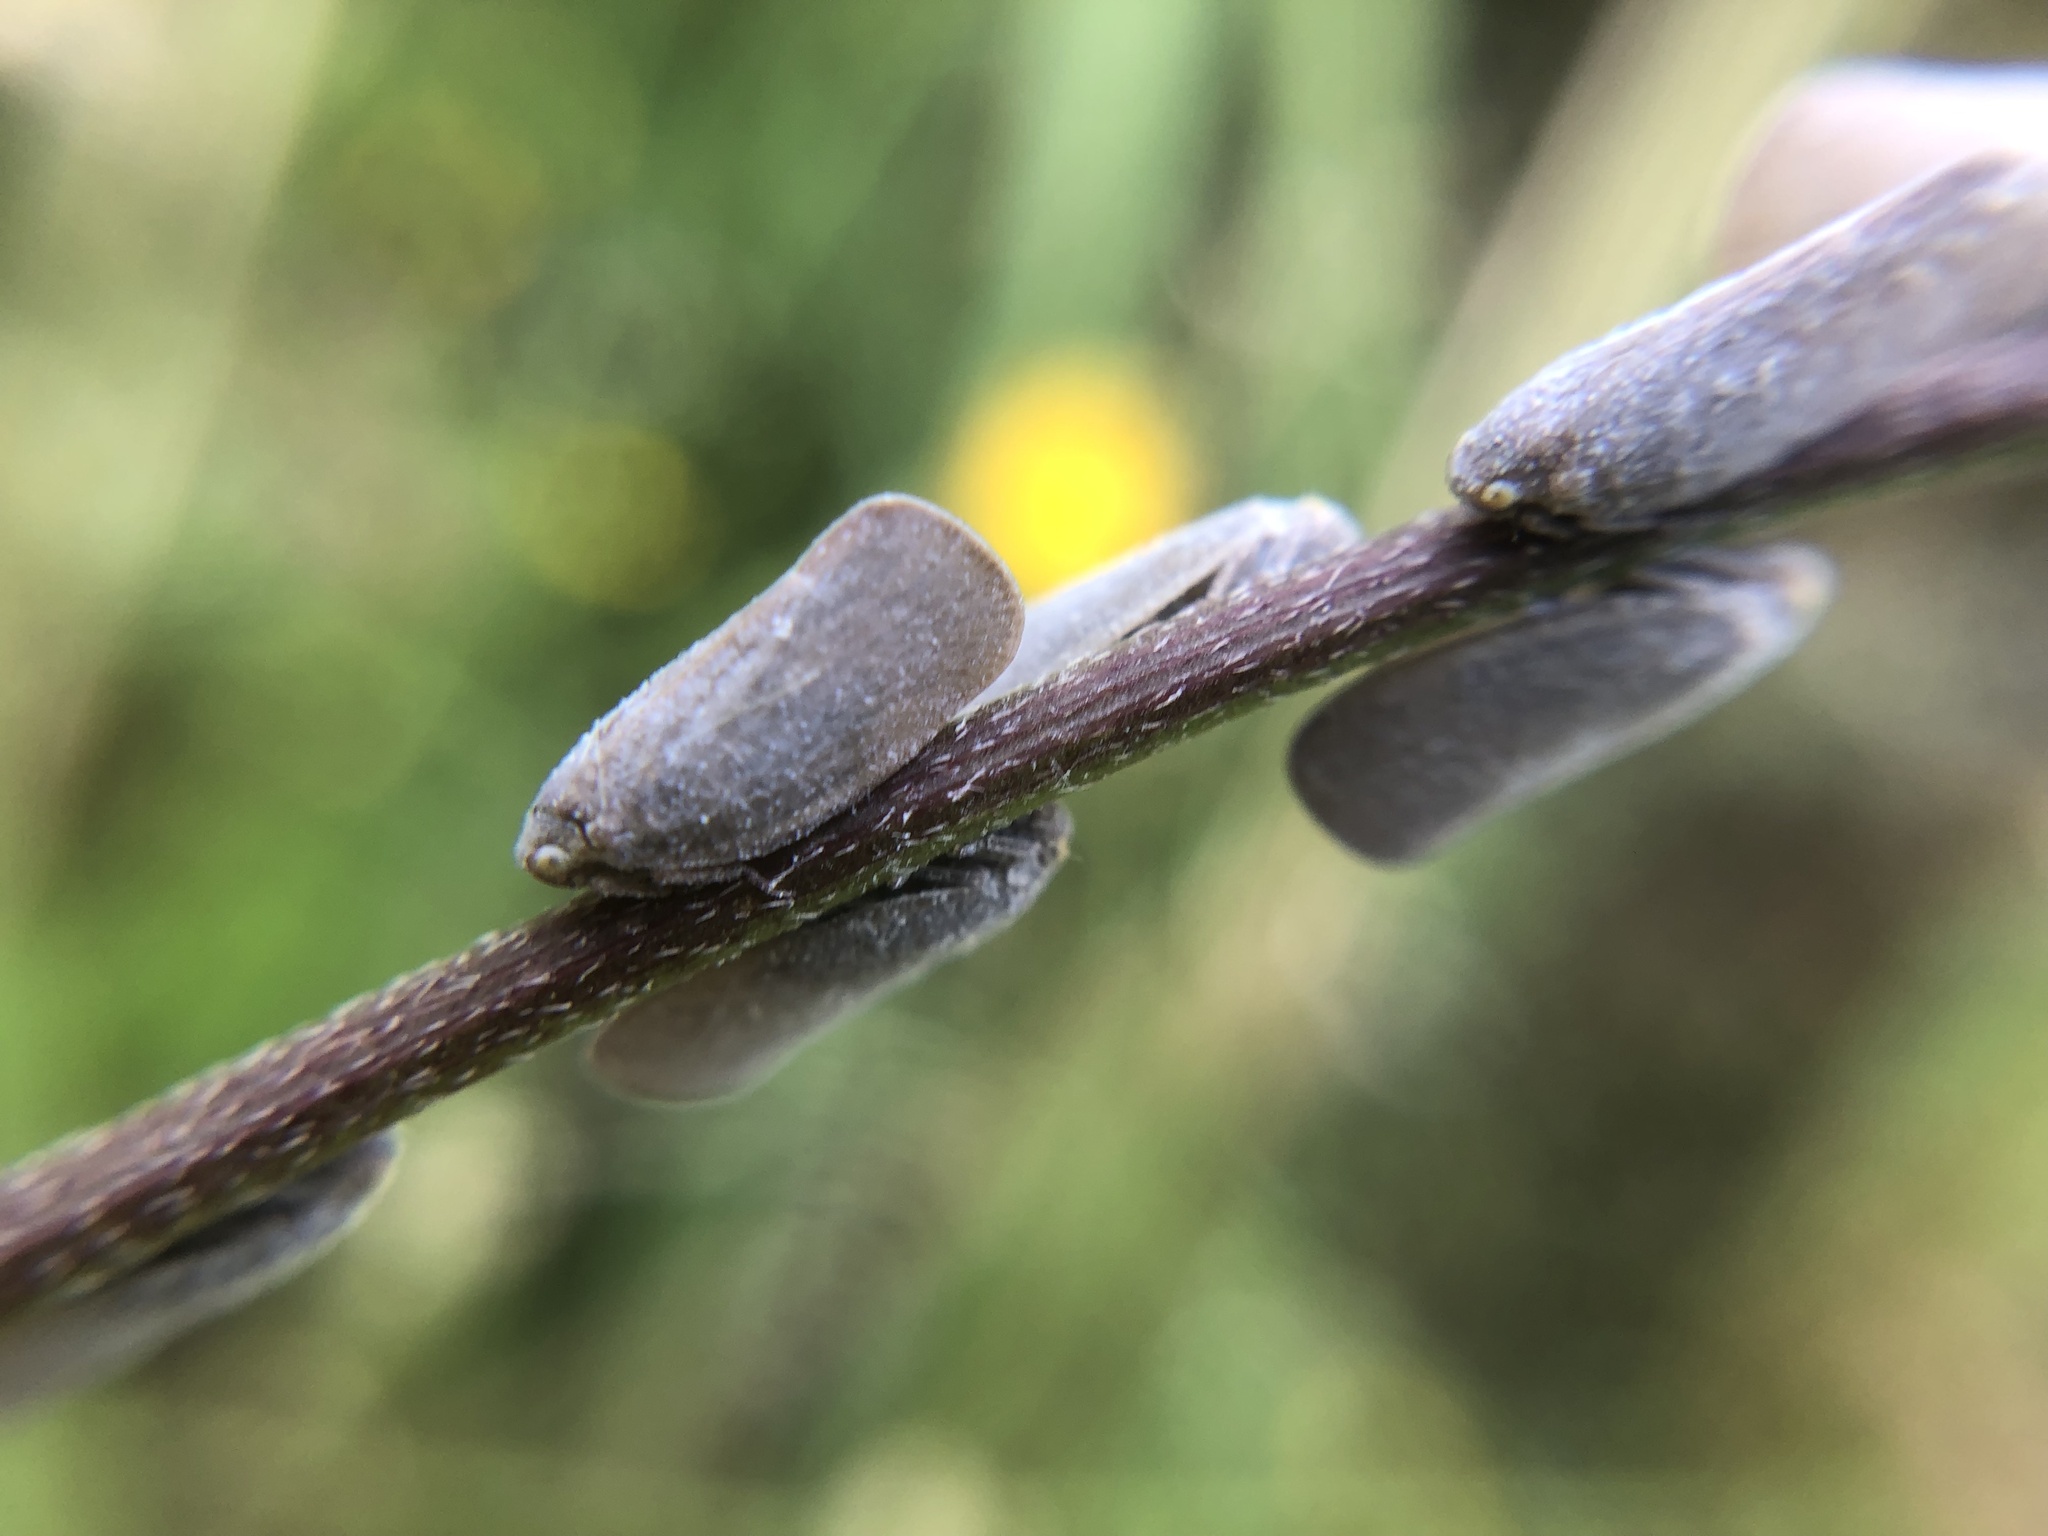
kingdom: Animalia
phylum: Arthropoda
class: Insecta
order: Hemiptera
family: Flatidae
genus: Anzora
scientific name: Anzora unicolor
